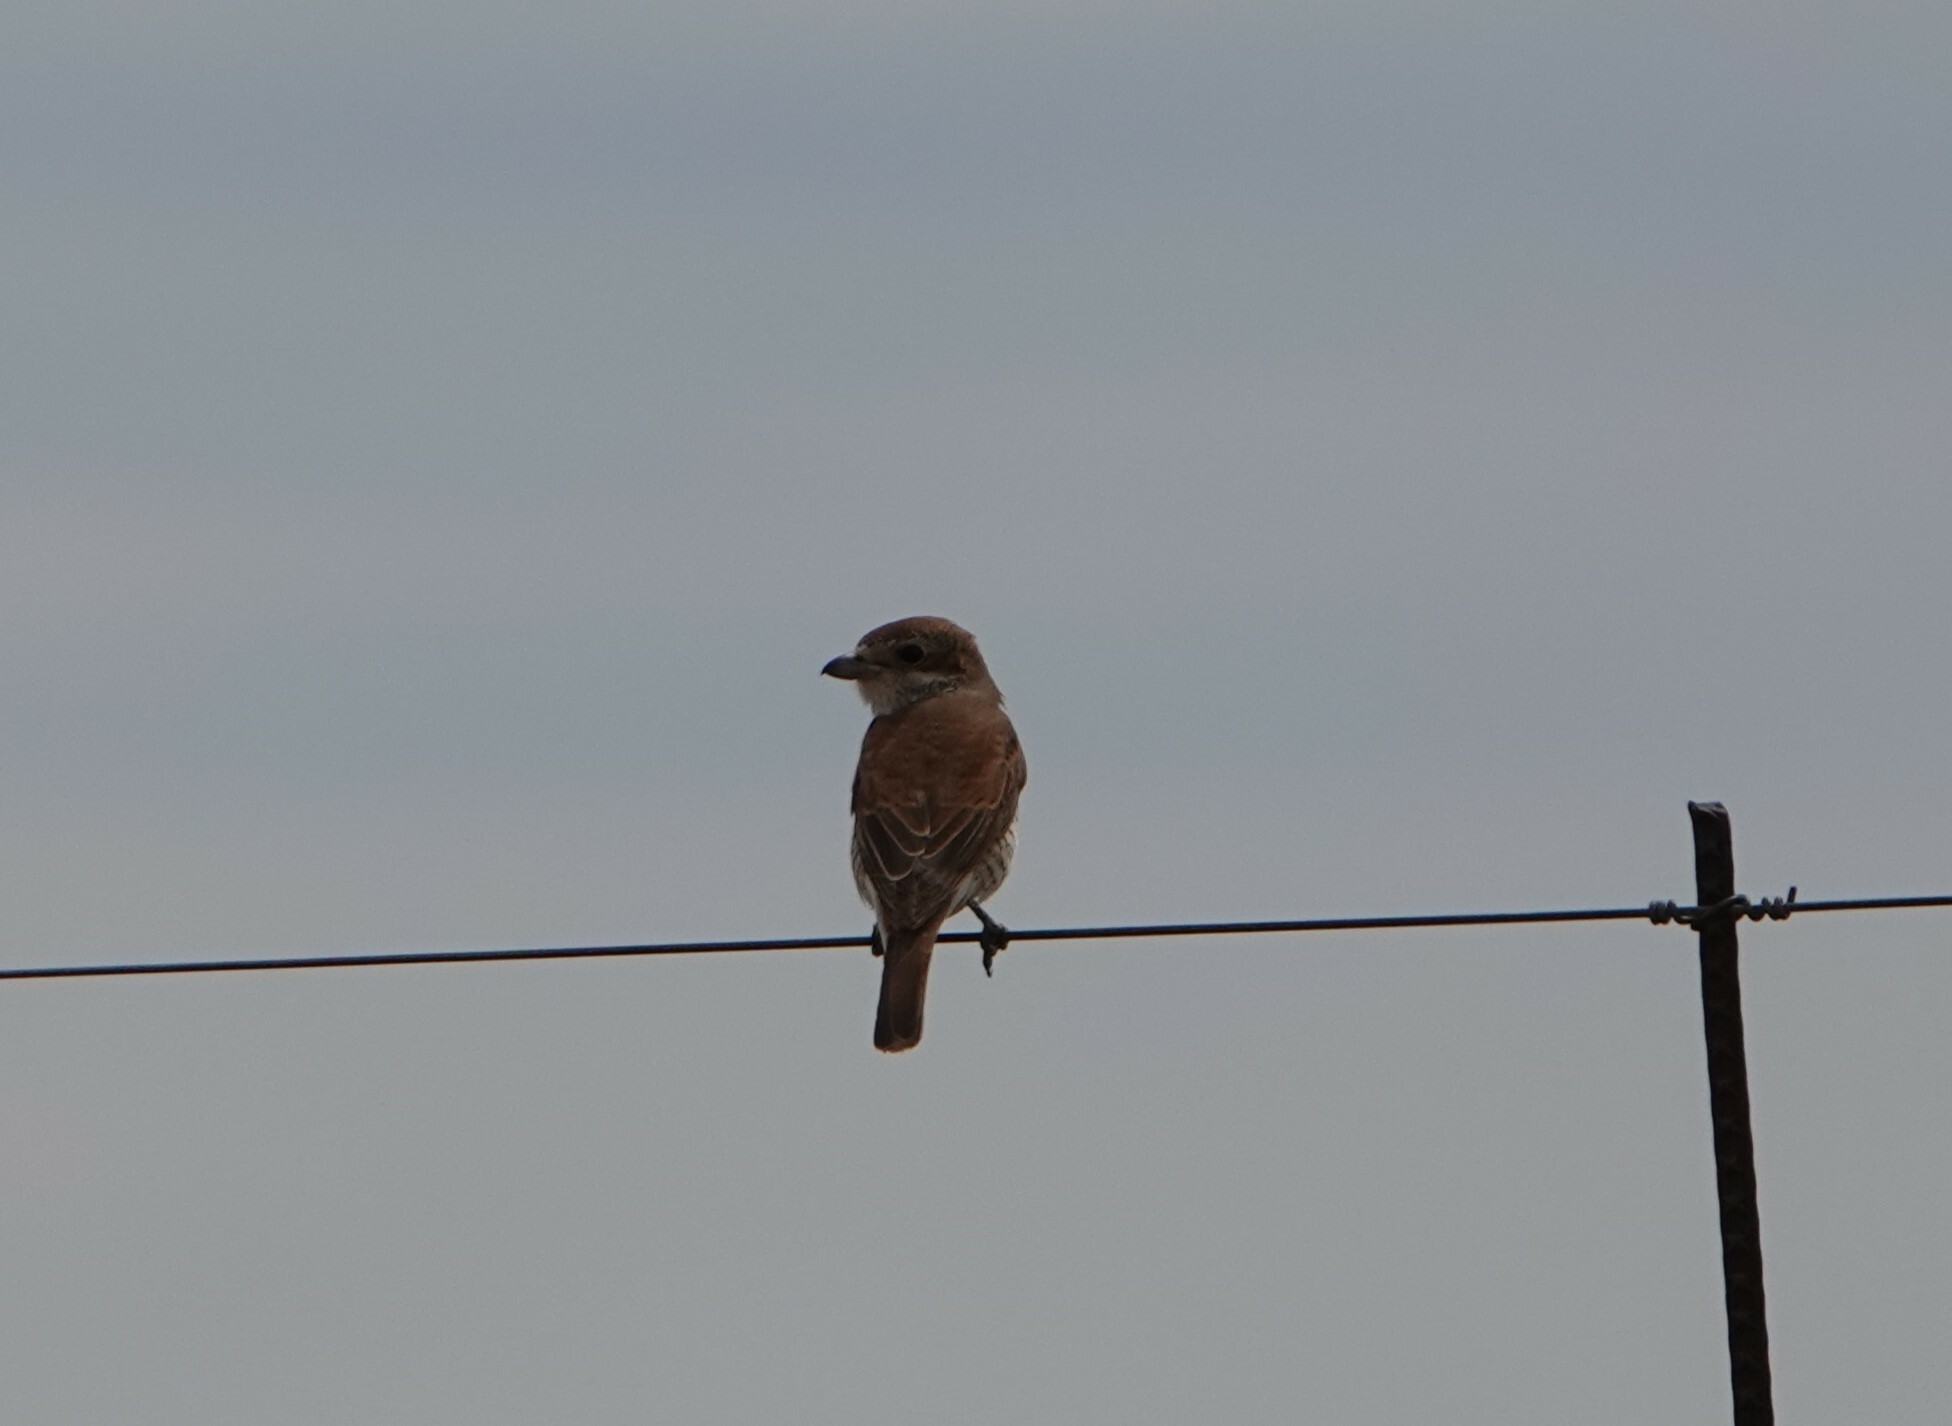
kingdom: Animalia
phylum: Chordata
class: Aves
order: Passeriformes
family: Laniidae
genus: Lanius
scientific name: Lanius collurio
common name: Red-backed shrike
